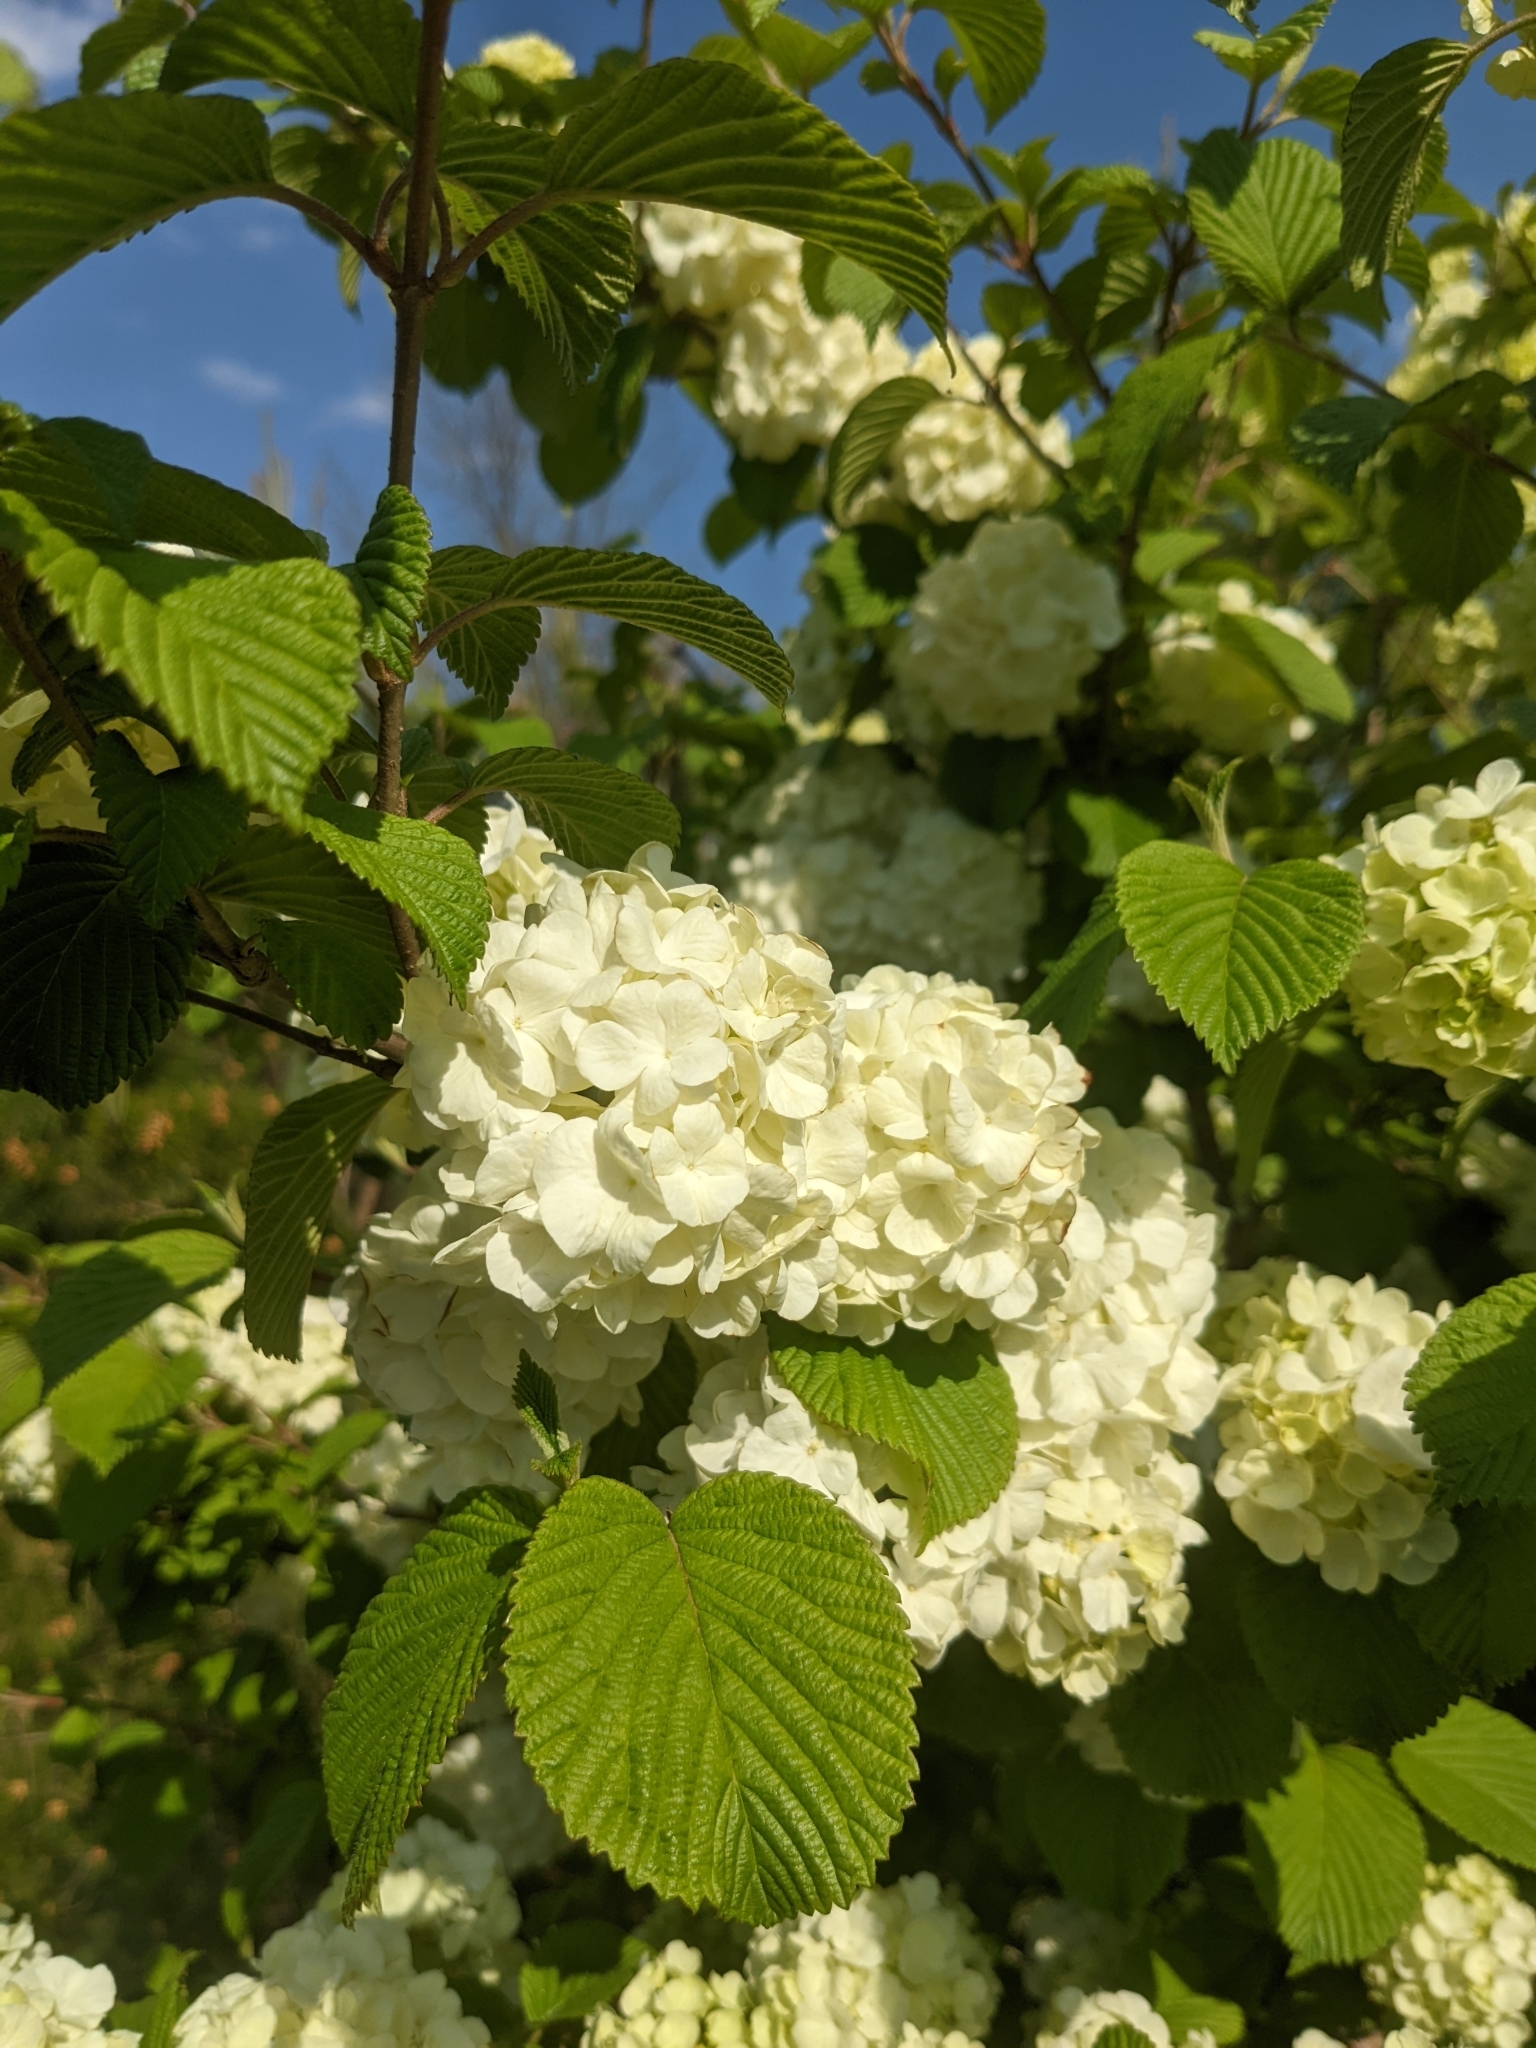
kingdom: Plantae
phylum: Tracheophyta
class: Magnoliopsida
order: Dipsacales
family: Viburnaceae
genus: Viburnum
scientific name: Viburnum plicatum
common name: Japanese snowball
